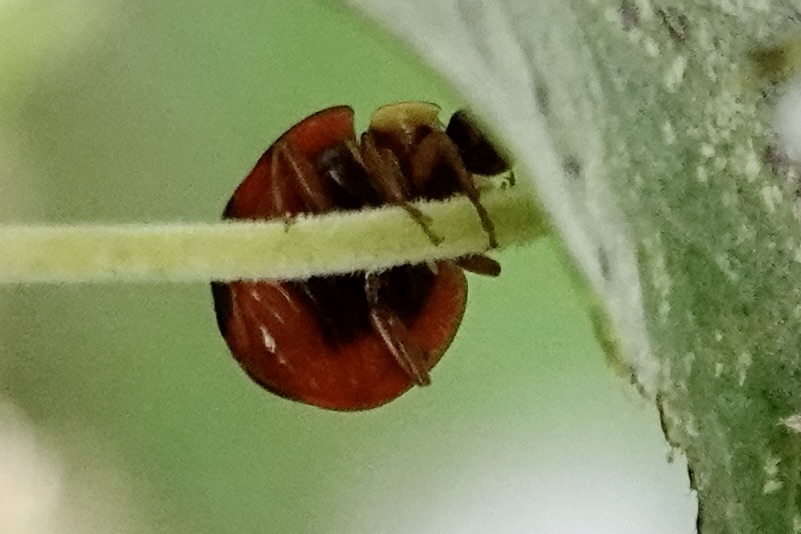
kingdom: Animalia
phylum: Arthropoda
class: Insecta
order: Coleoptera
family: Coccinellidae
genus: Harmonia
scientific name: Harmonia axyridis
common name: Harlequin ladybird
